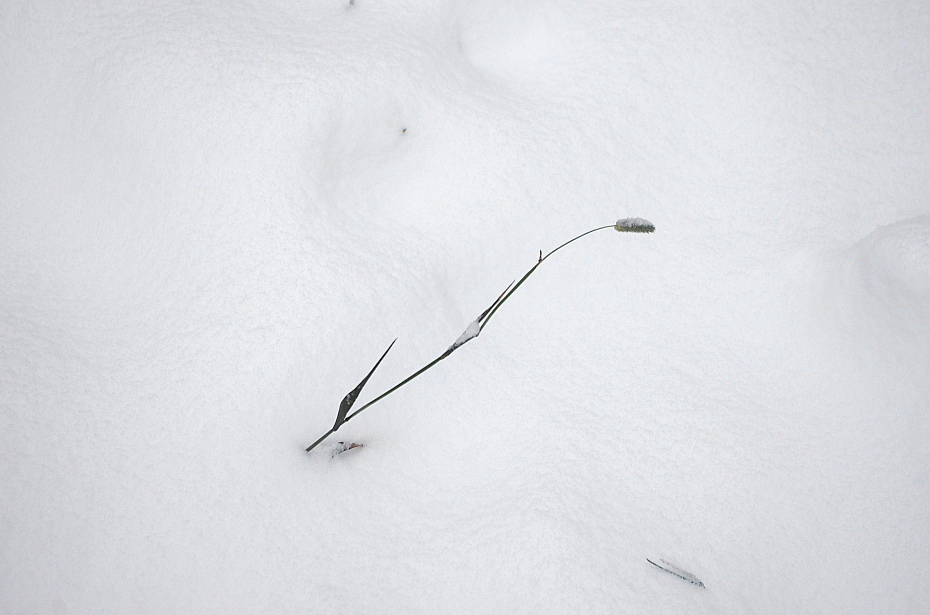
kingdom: Plantae
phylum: Tracheophyta
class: Liliopsida
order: Poales
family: Poaceae
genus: Phleum
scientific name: Phleum pratense
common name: Timothy grass
